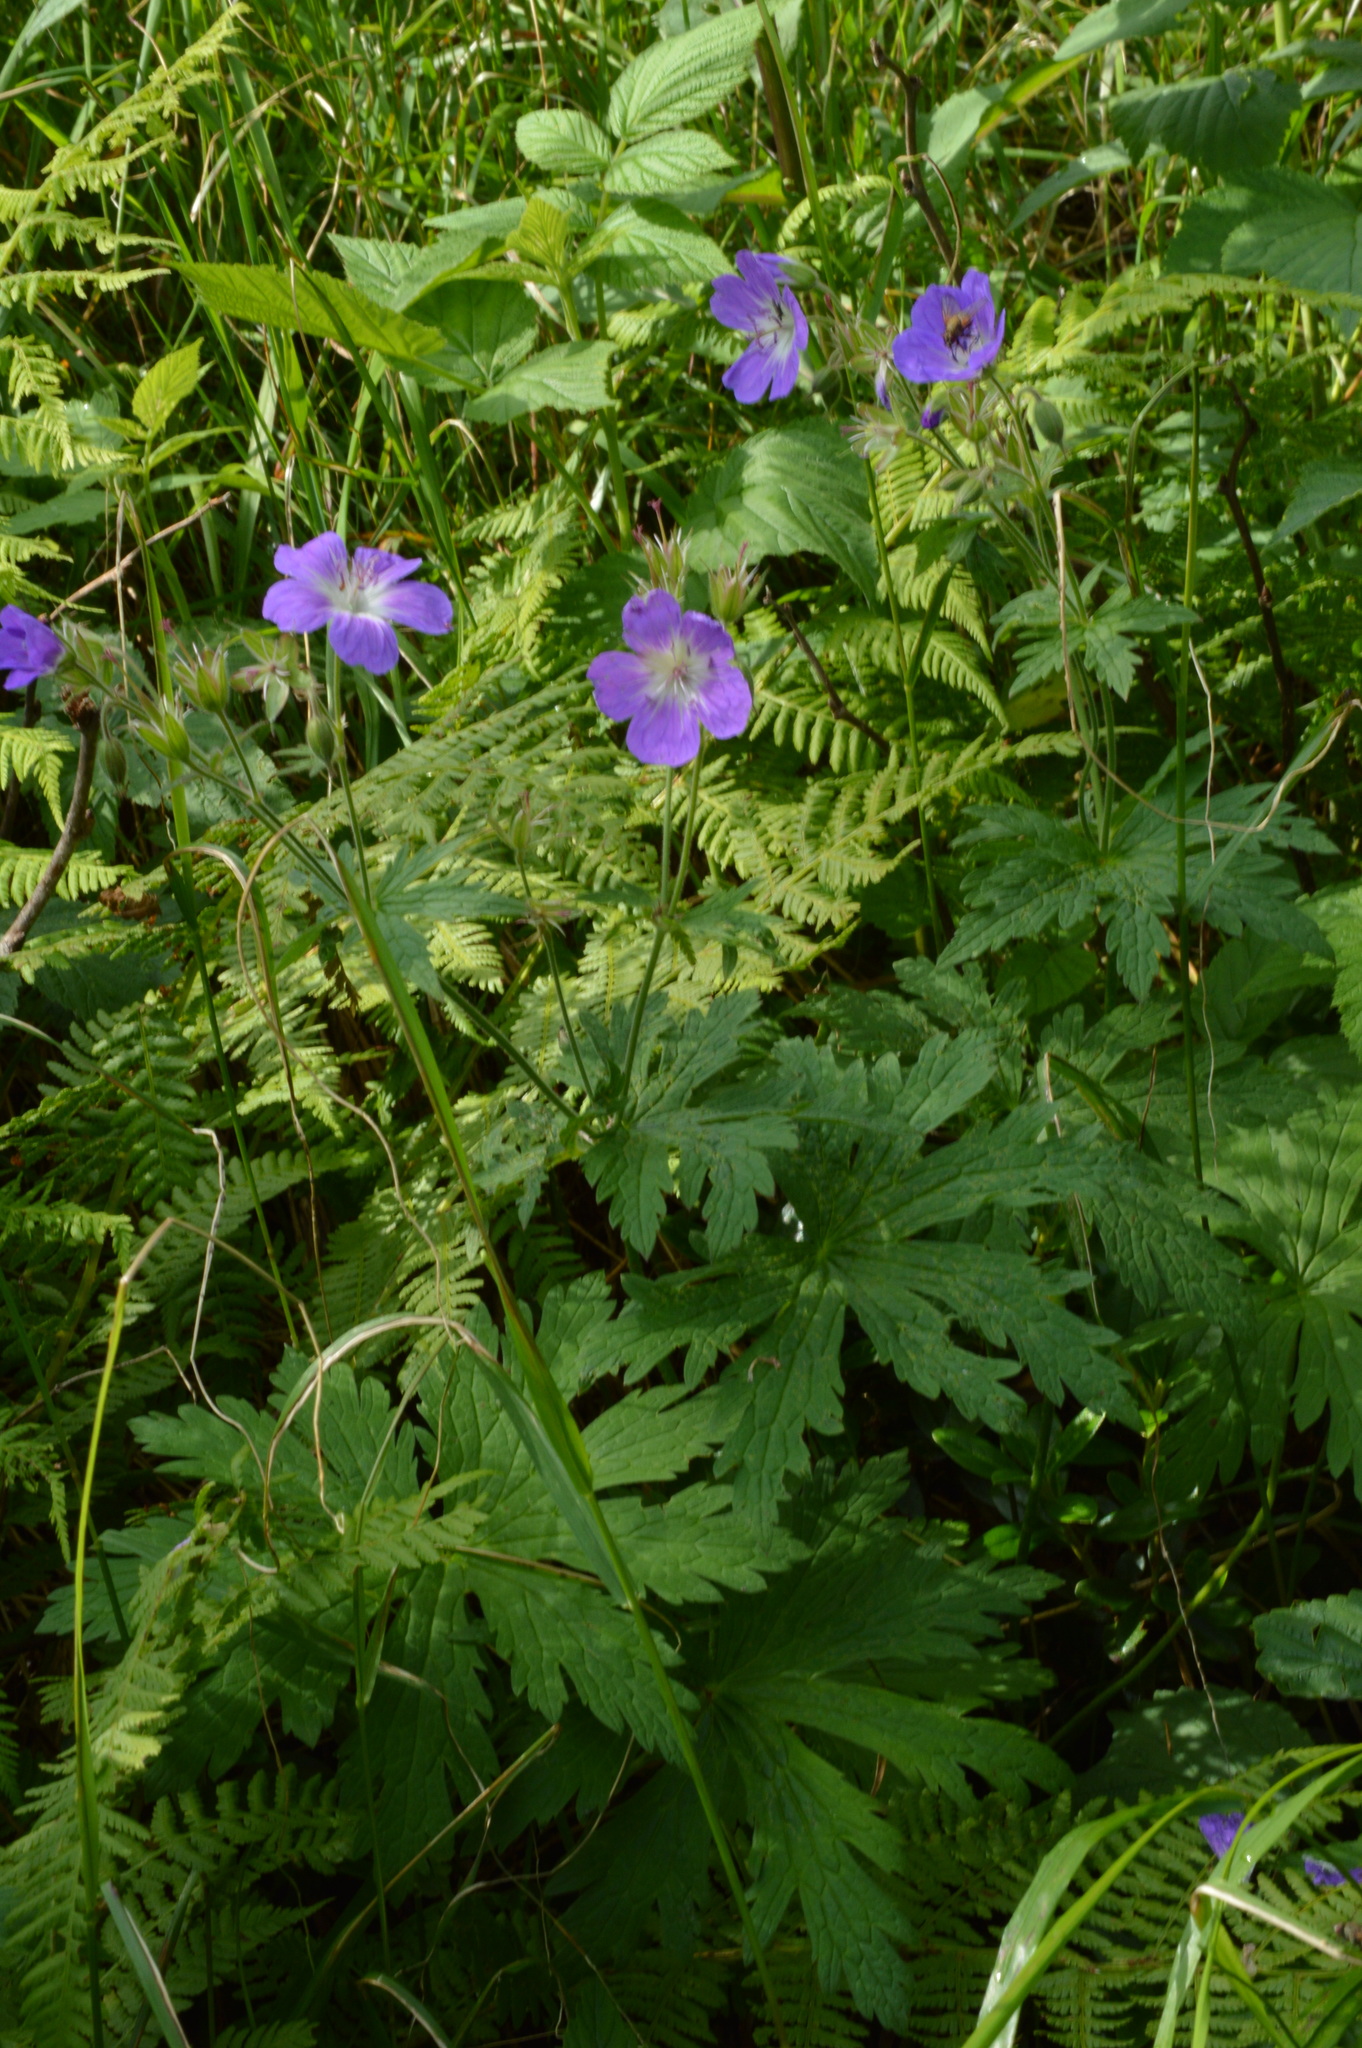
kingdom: Plantae
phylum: Tracheophyta
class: Magnoliopsida
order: Geraniales
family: Geraniaceae
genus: Geranium
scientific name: Geranium sylvaticum
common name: Wood crane's-bill
